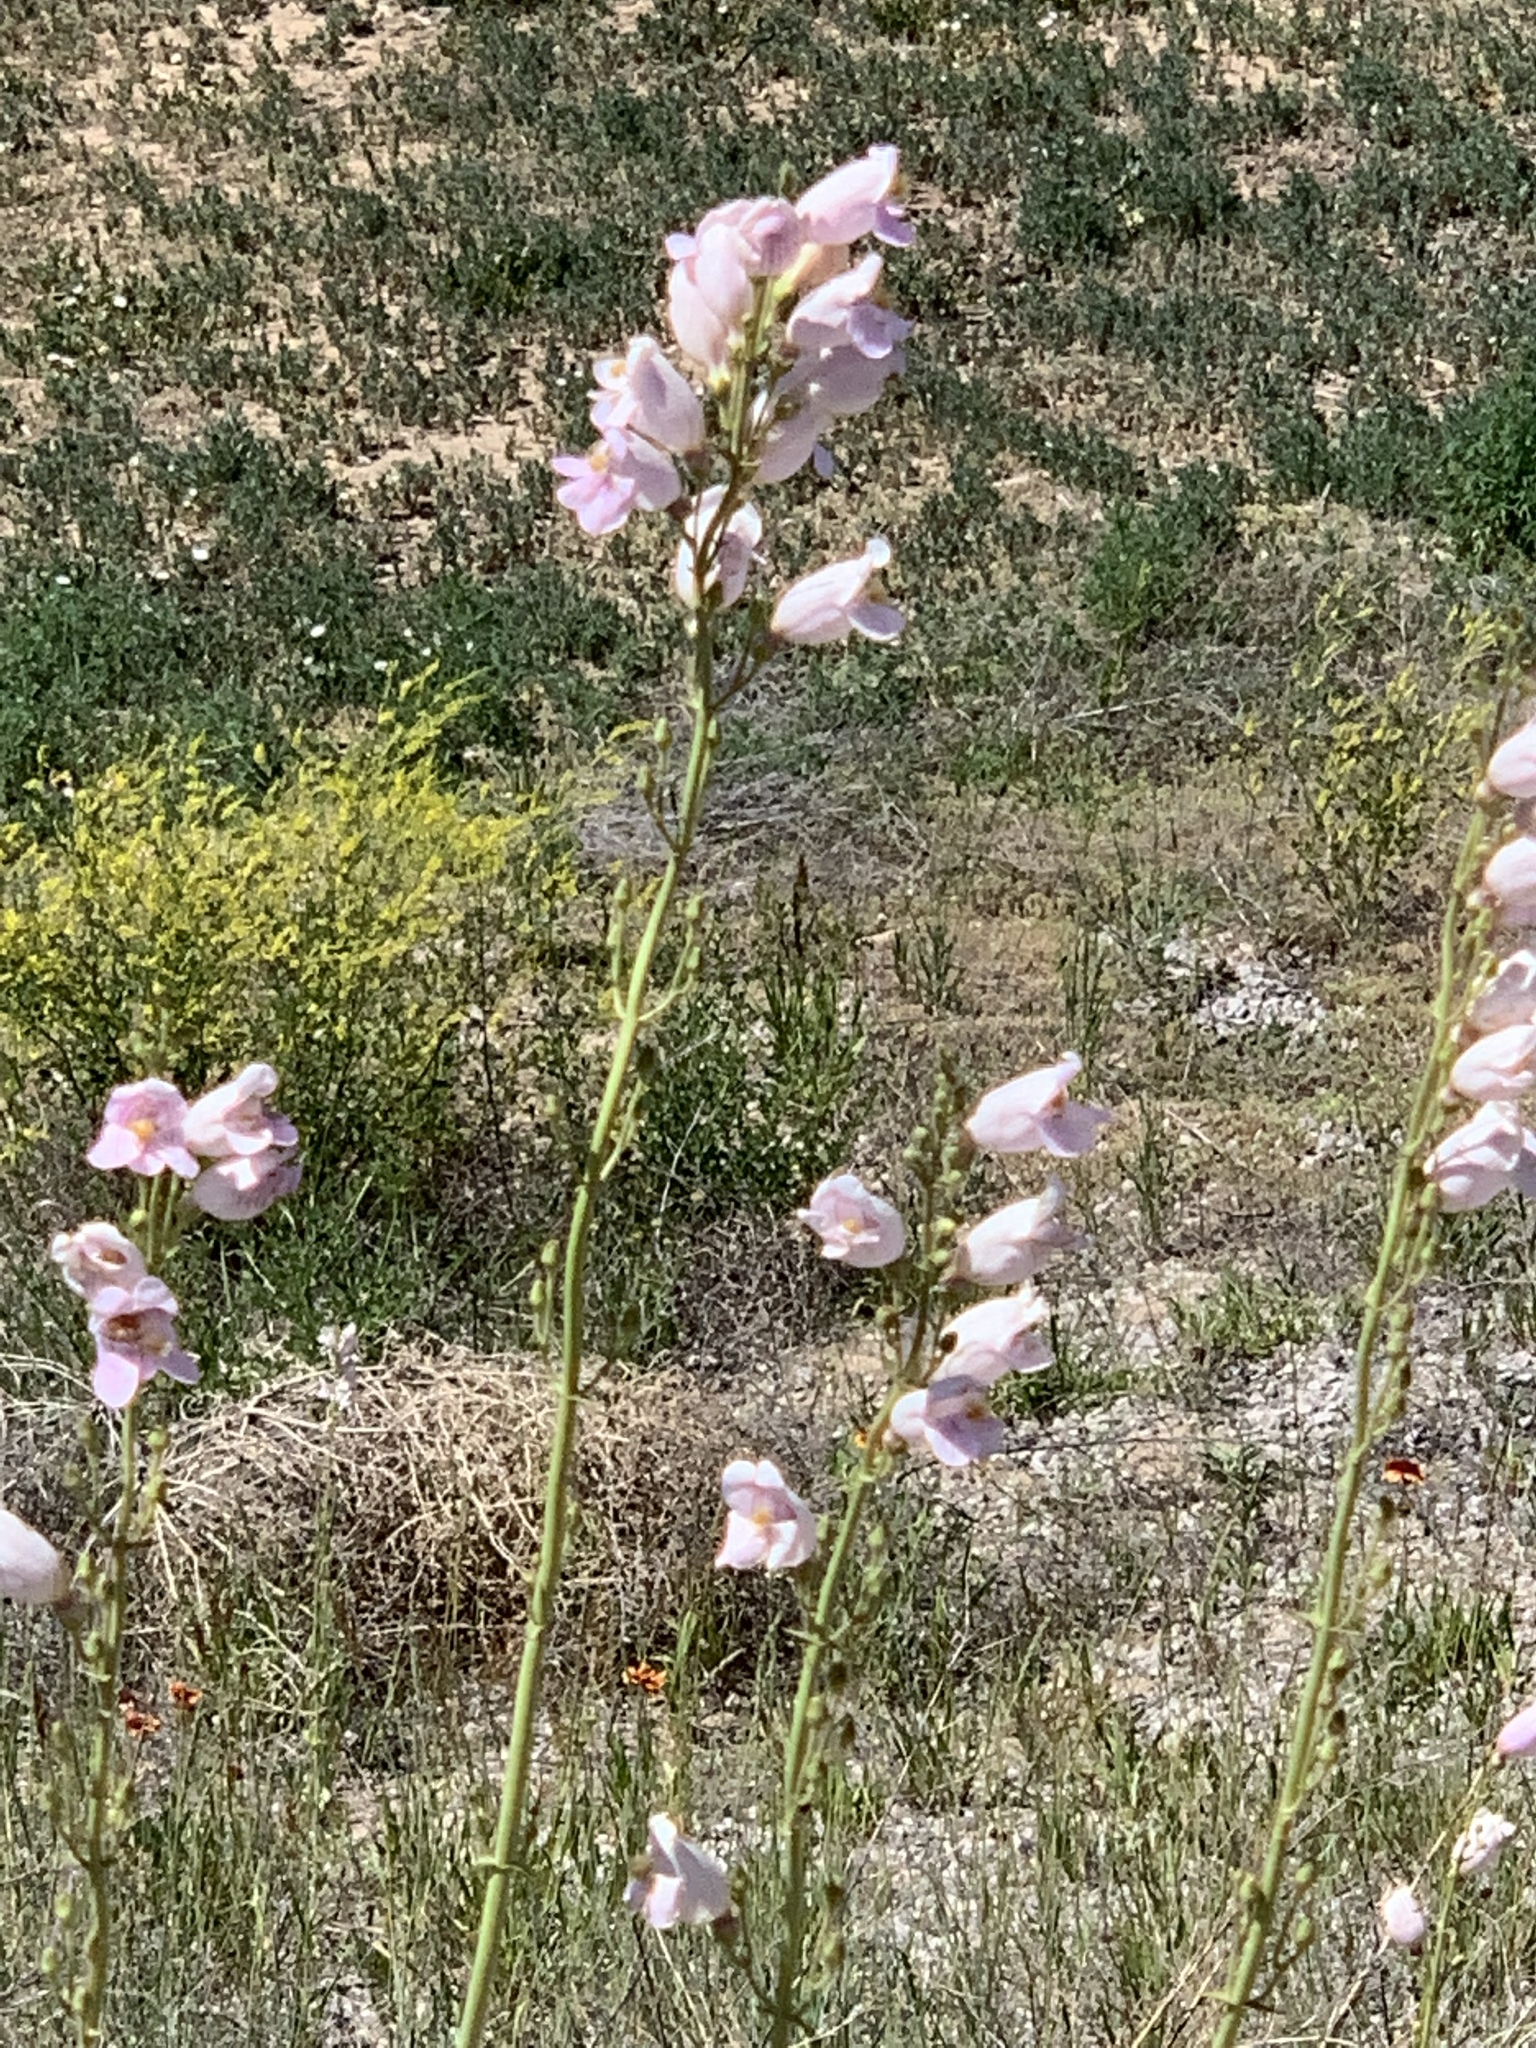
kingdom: Plantae
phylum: Tracheophyta
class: Magnoliopsida
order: Lamiales
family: Plantaginaceae
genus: Penstemon
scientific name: Penstemon palmeri
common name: Palmer penstemon
